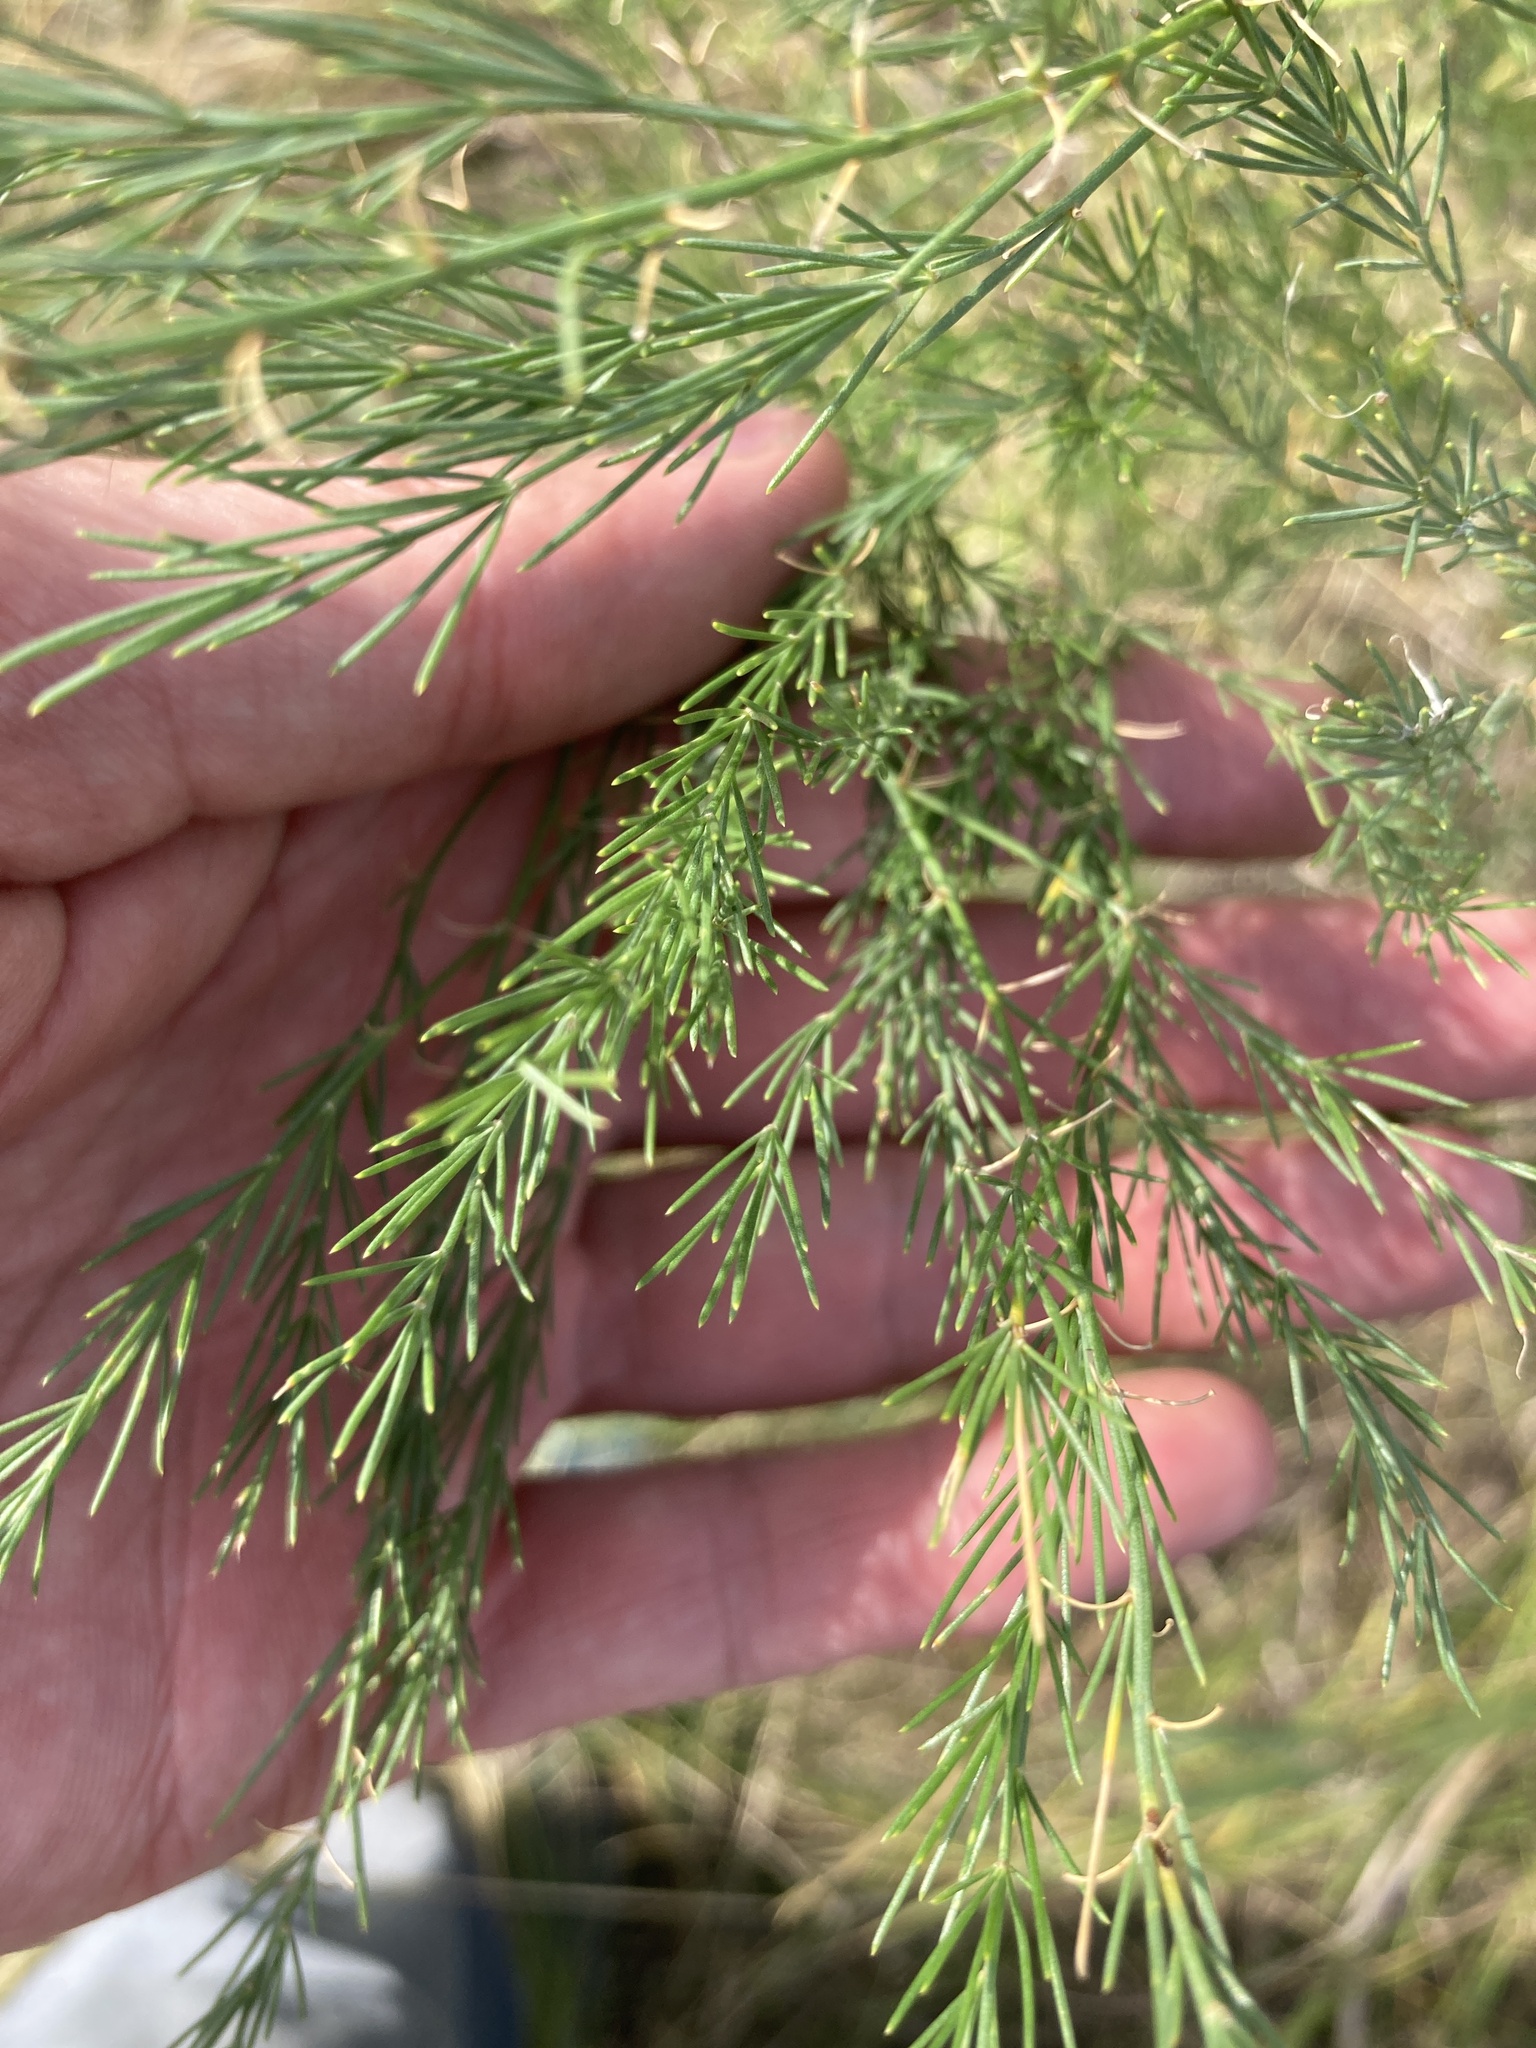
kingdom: Plantae
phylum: Tracheophyta
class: Liliopsida
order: Asparagales
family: Asparagaceae
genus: Asparagus
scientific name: Asparagus officinalis
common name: Garden asparagus
